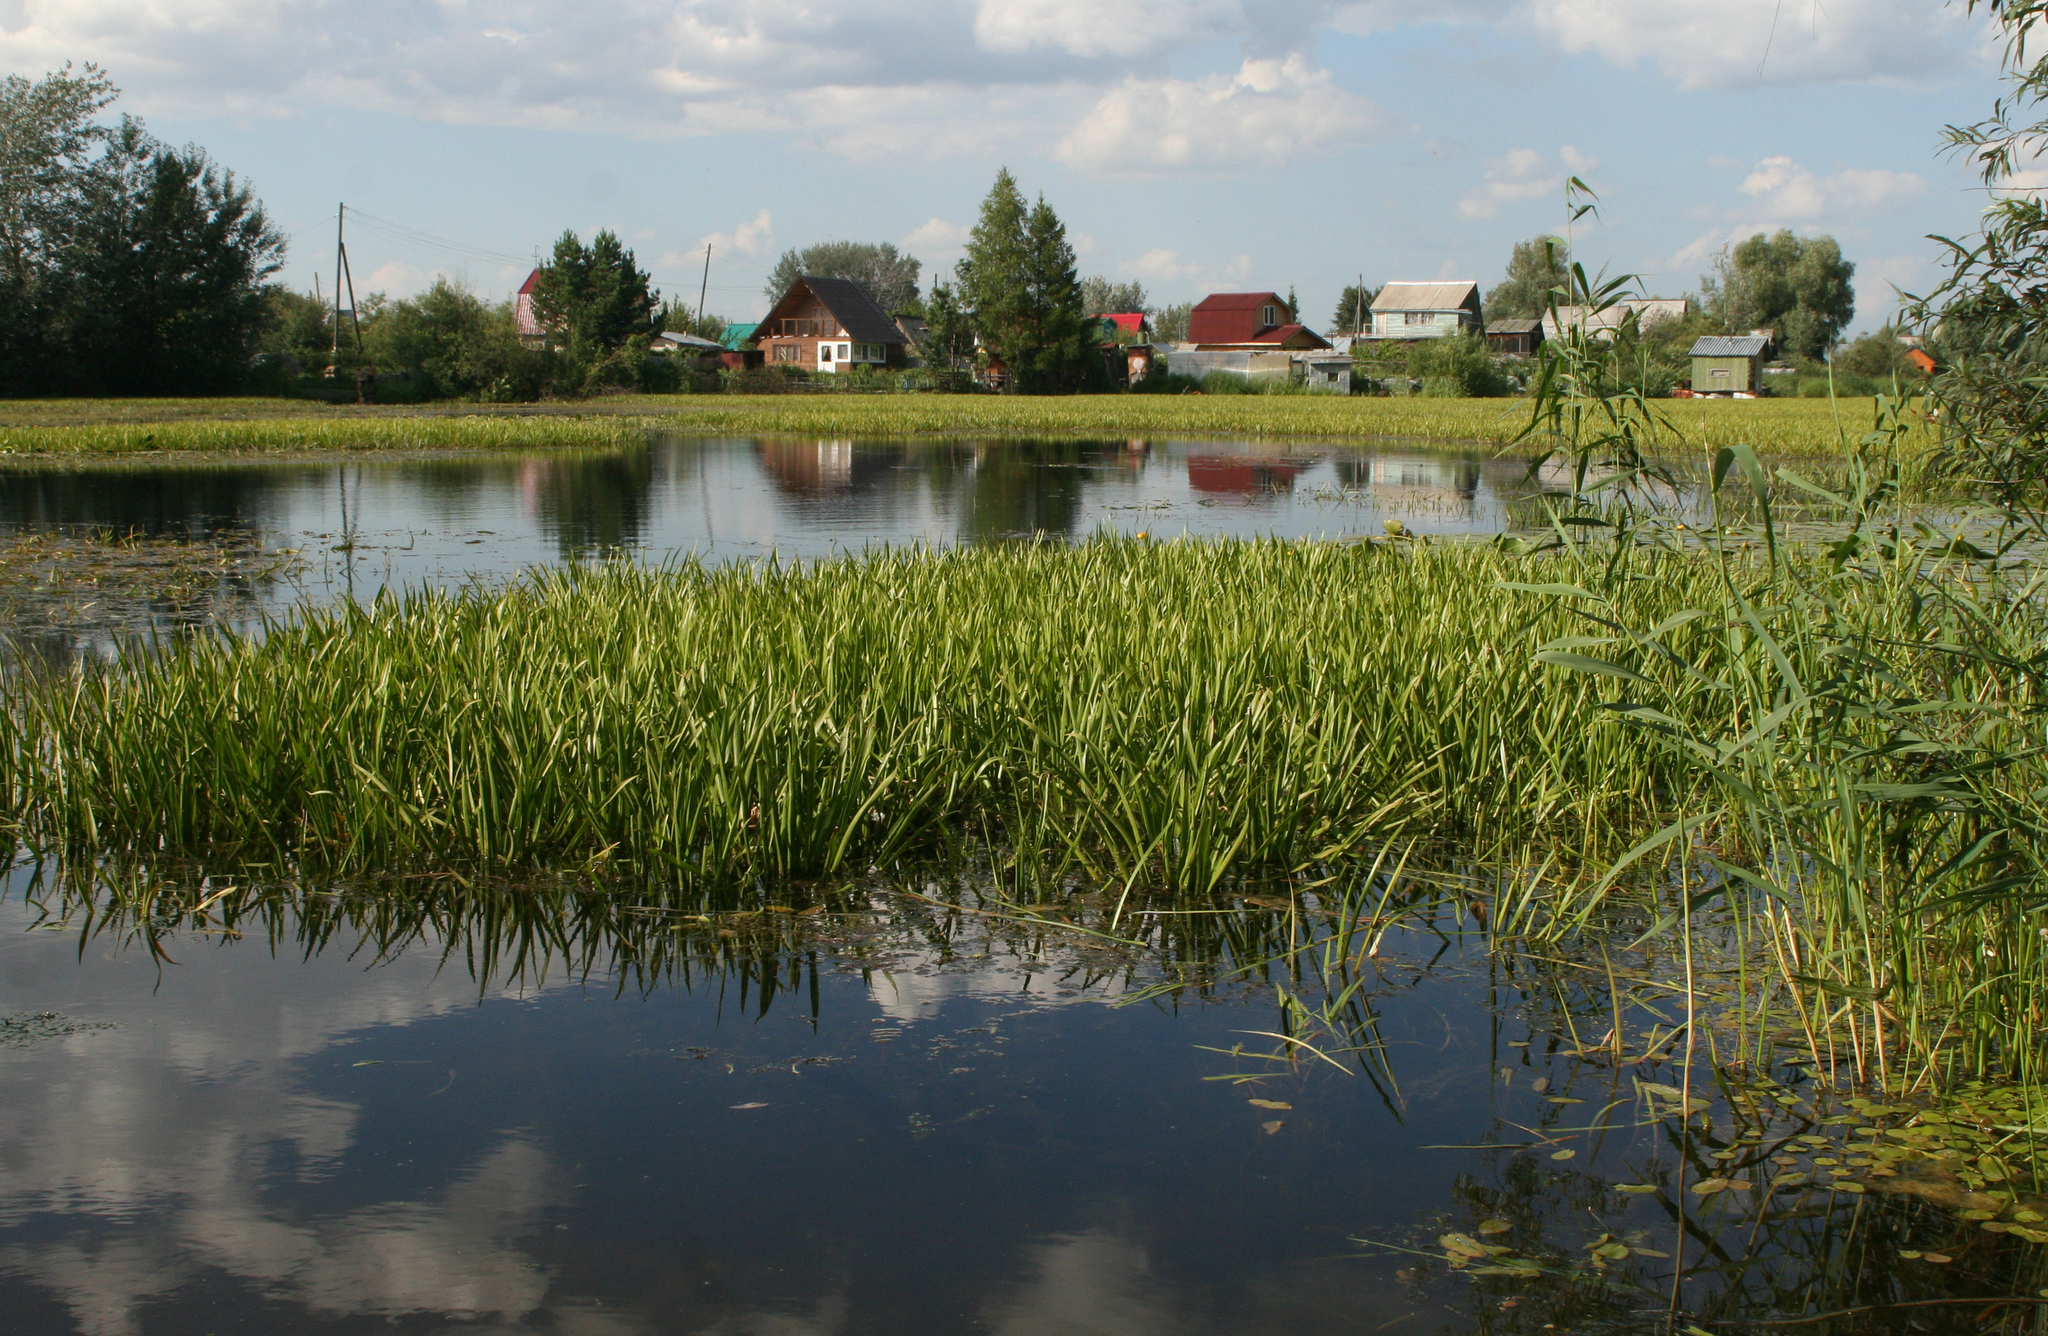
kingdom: Plantae
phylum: Tracheophyta
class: Liliopsida
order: Alismatales
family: Hydrocharitaceae
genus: Stratiotes
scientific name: Stratiotes aloides
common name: Water-soldier
